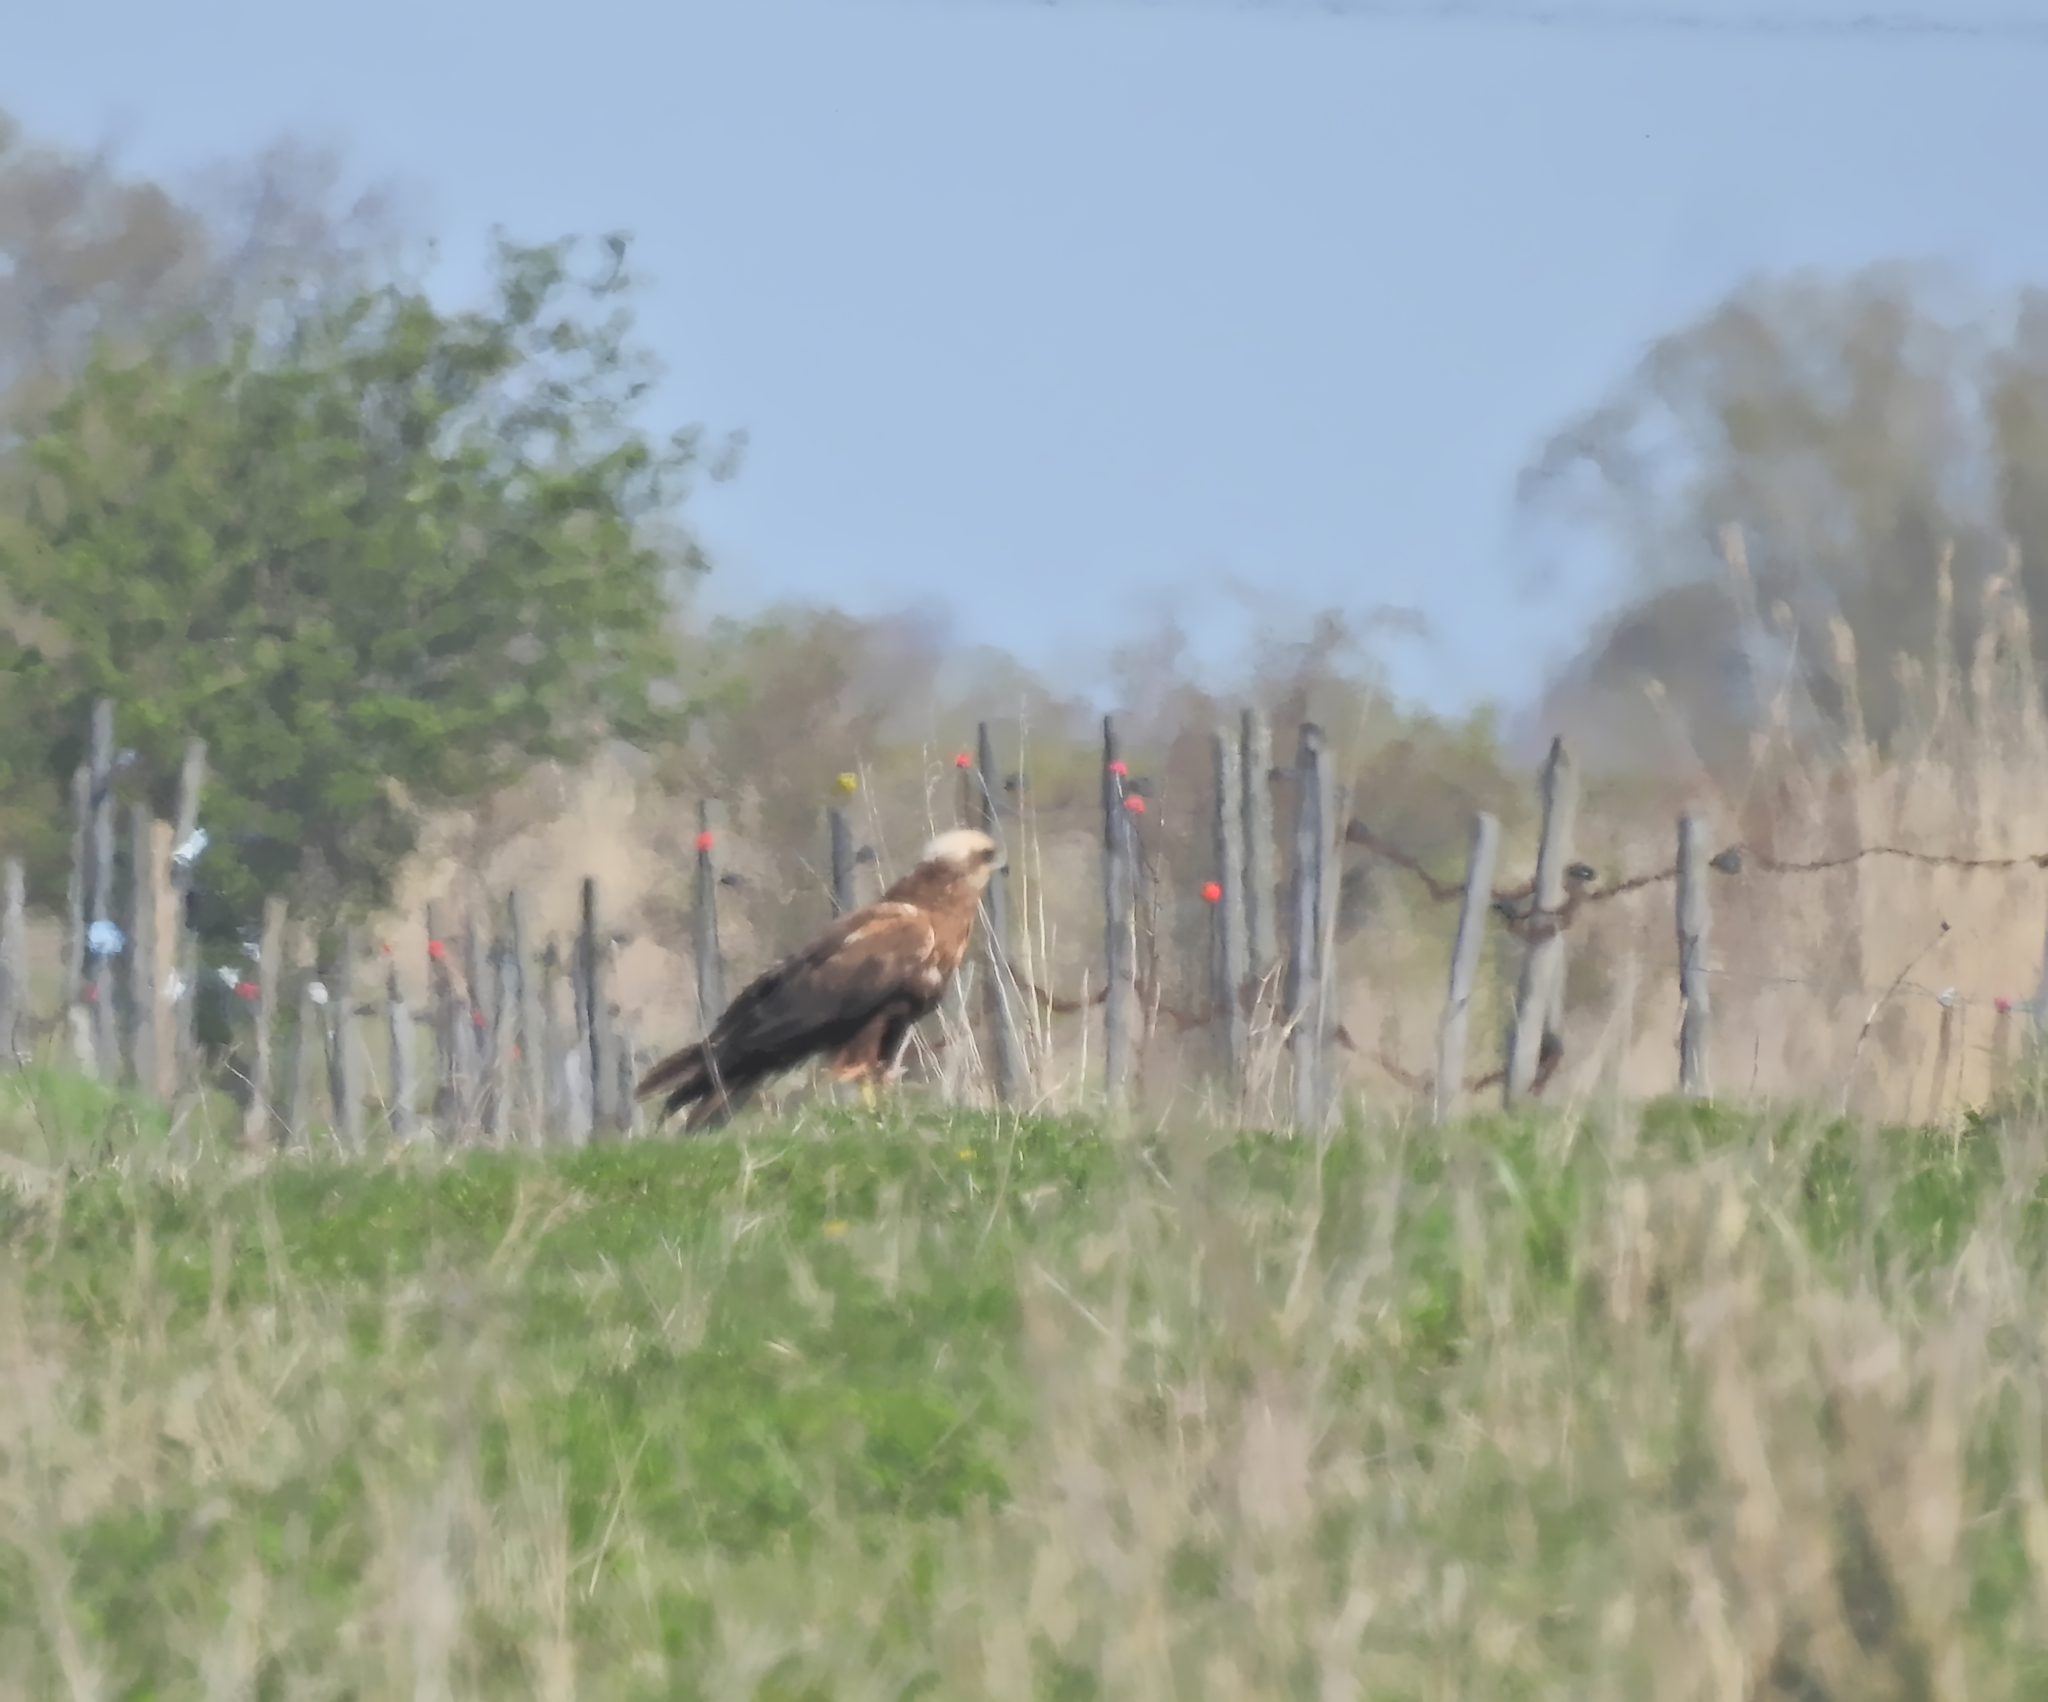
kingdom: Animalia
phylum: Chordata
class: Aves
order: Accipitriformes
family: Accipitridae
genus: Circus
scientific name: Circus aeruginosus
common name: Western marsh harrier
